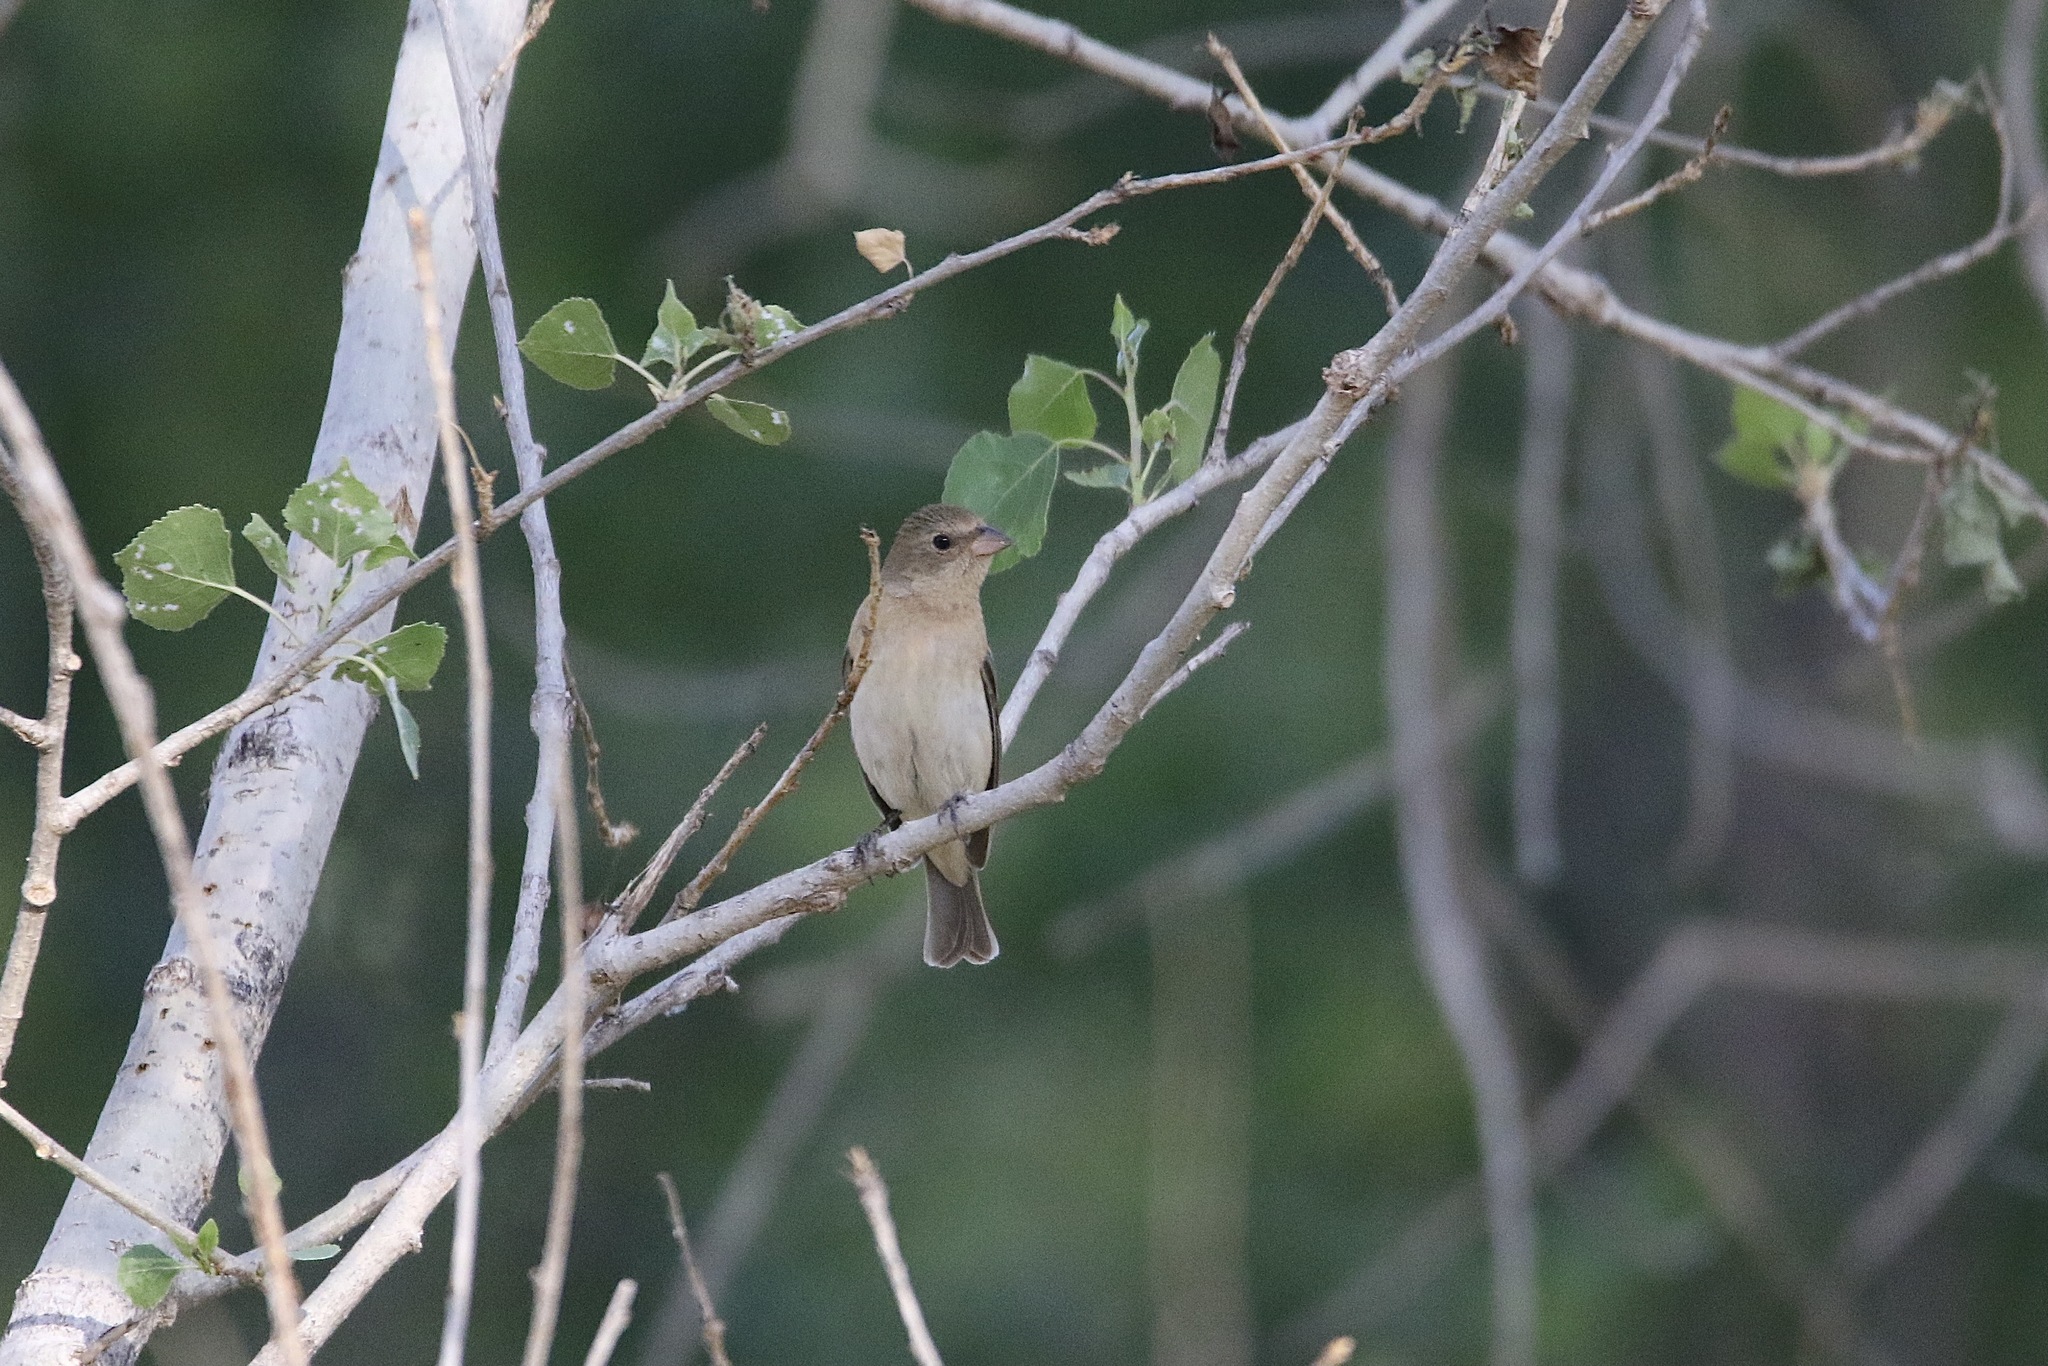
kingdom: Animalia
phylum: Chordata
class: Aves
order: Passeriformes
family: Cardinalidae
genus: Passerina
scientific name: Passerina amoena
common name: Lazuli bunting
